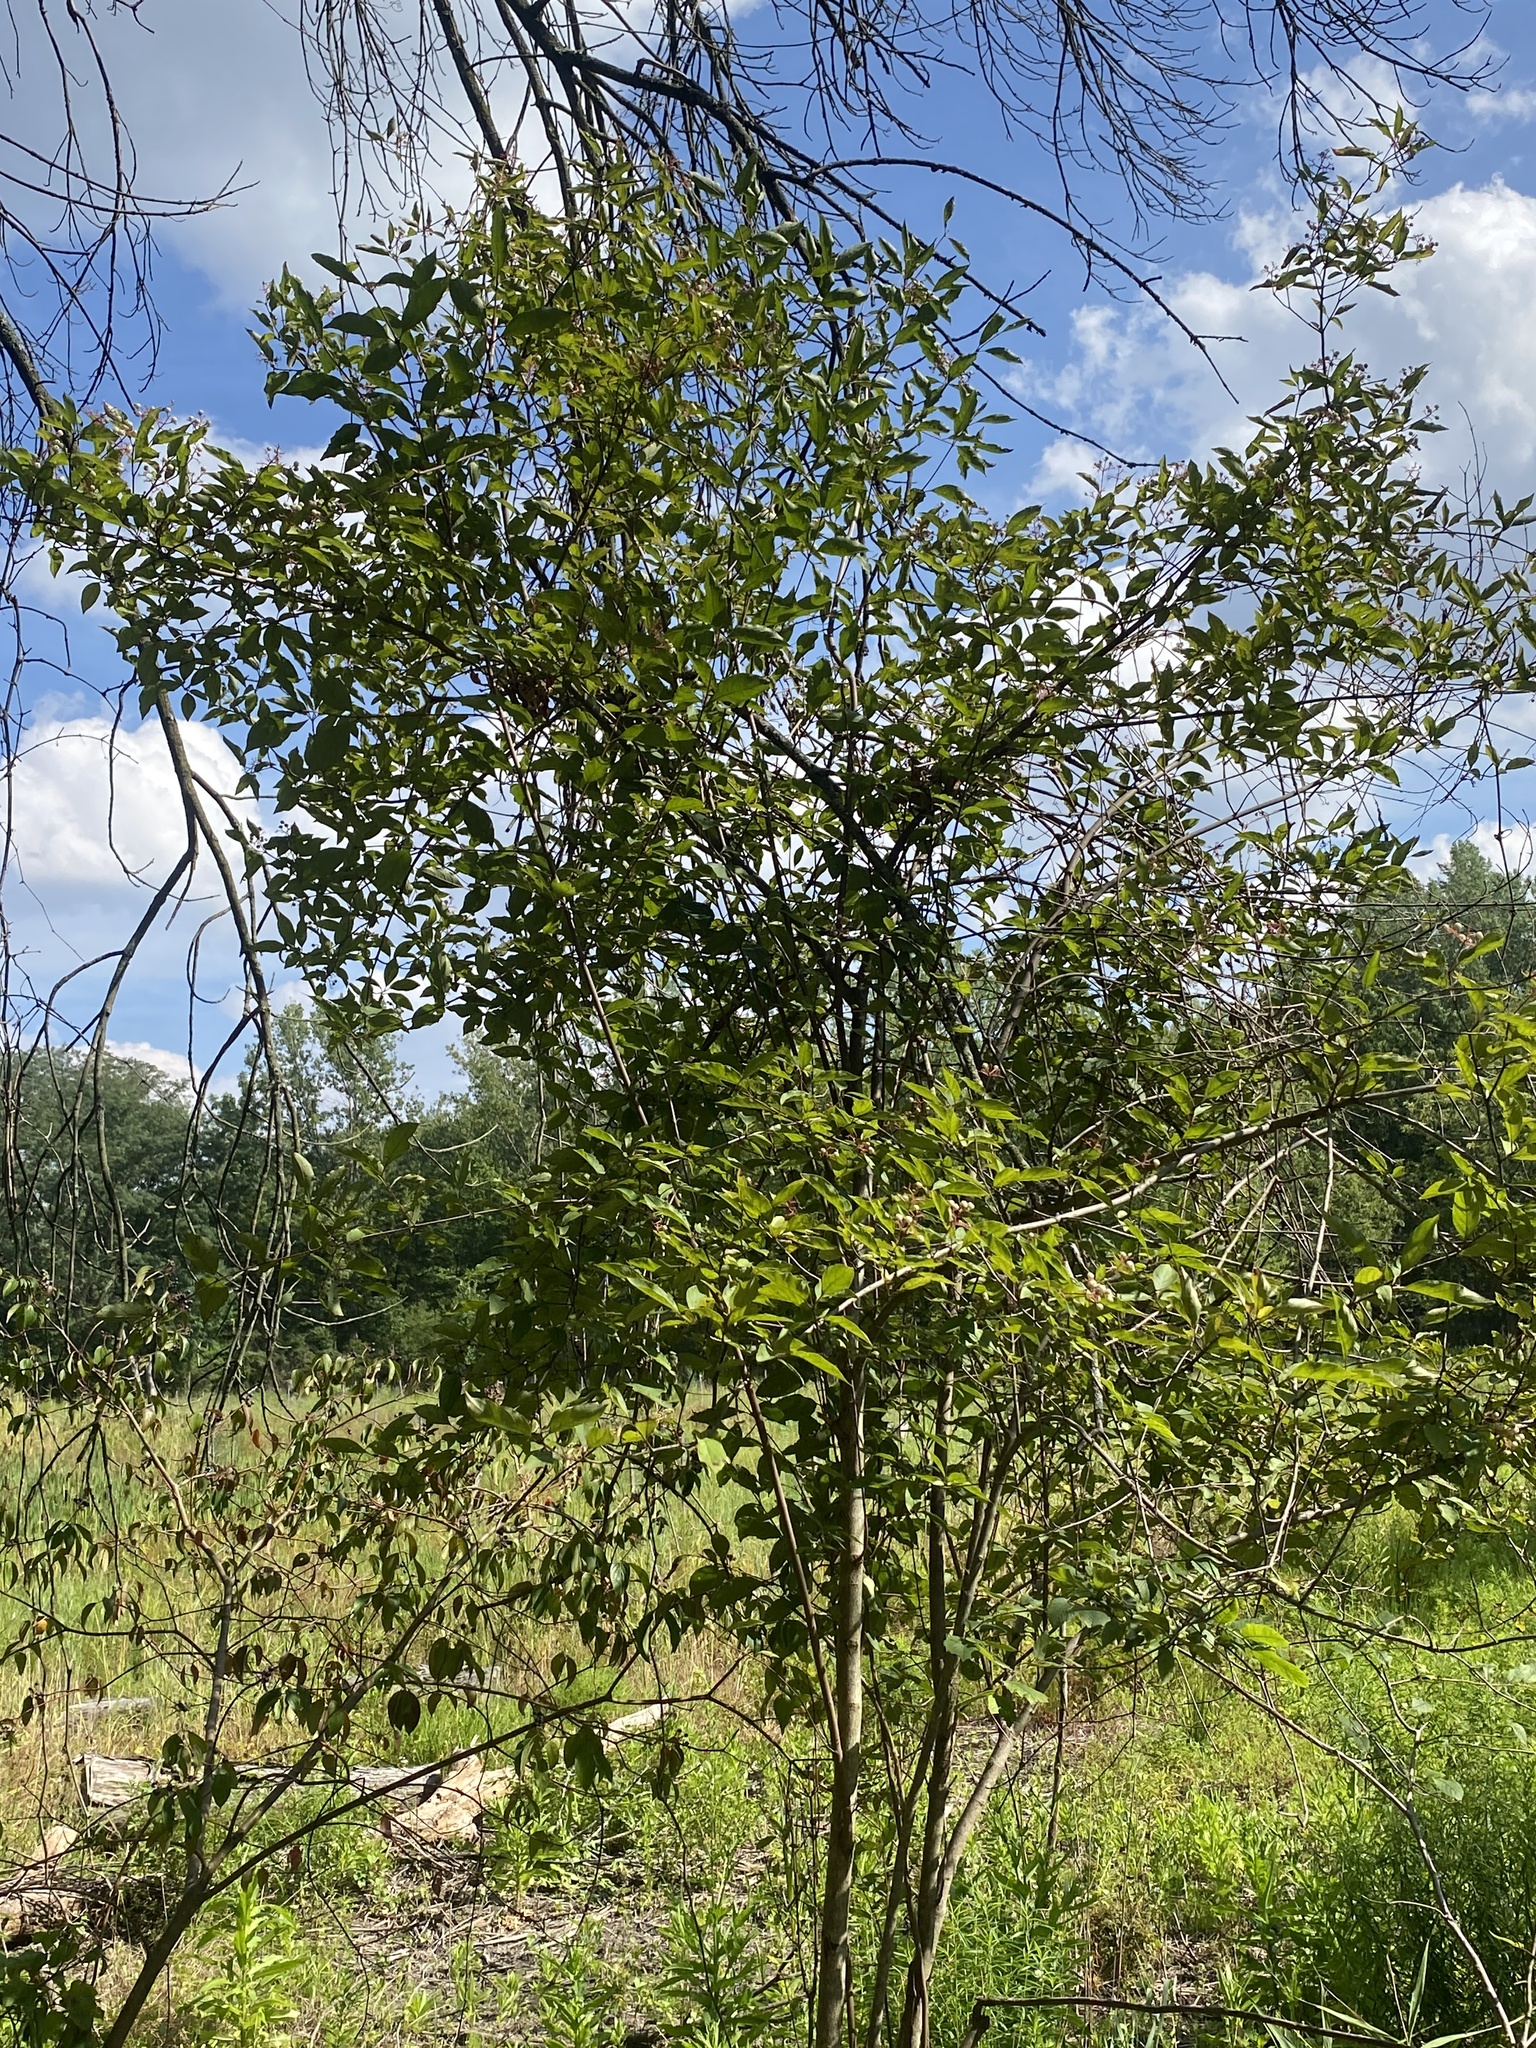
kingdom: Plantae
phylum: Tracheophyta
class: Magnoliopsida
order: Cornales
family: Cornaceae
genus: Cornus
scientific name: Cornus racemosa
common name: Panicled dogwood
